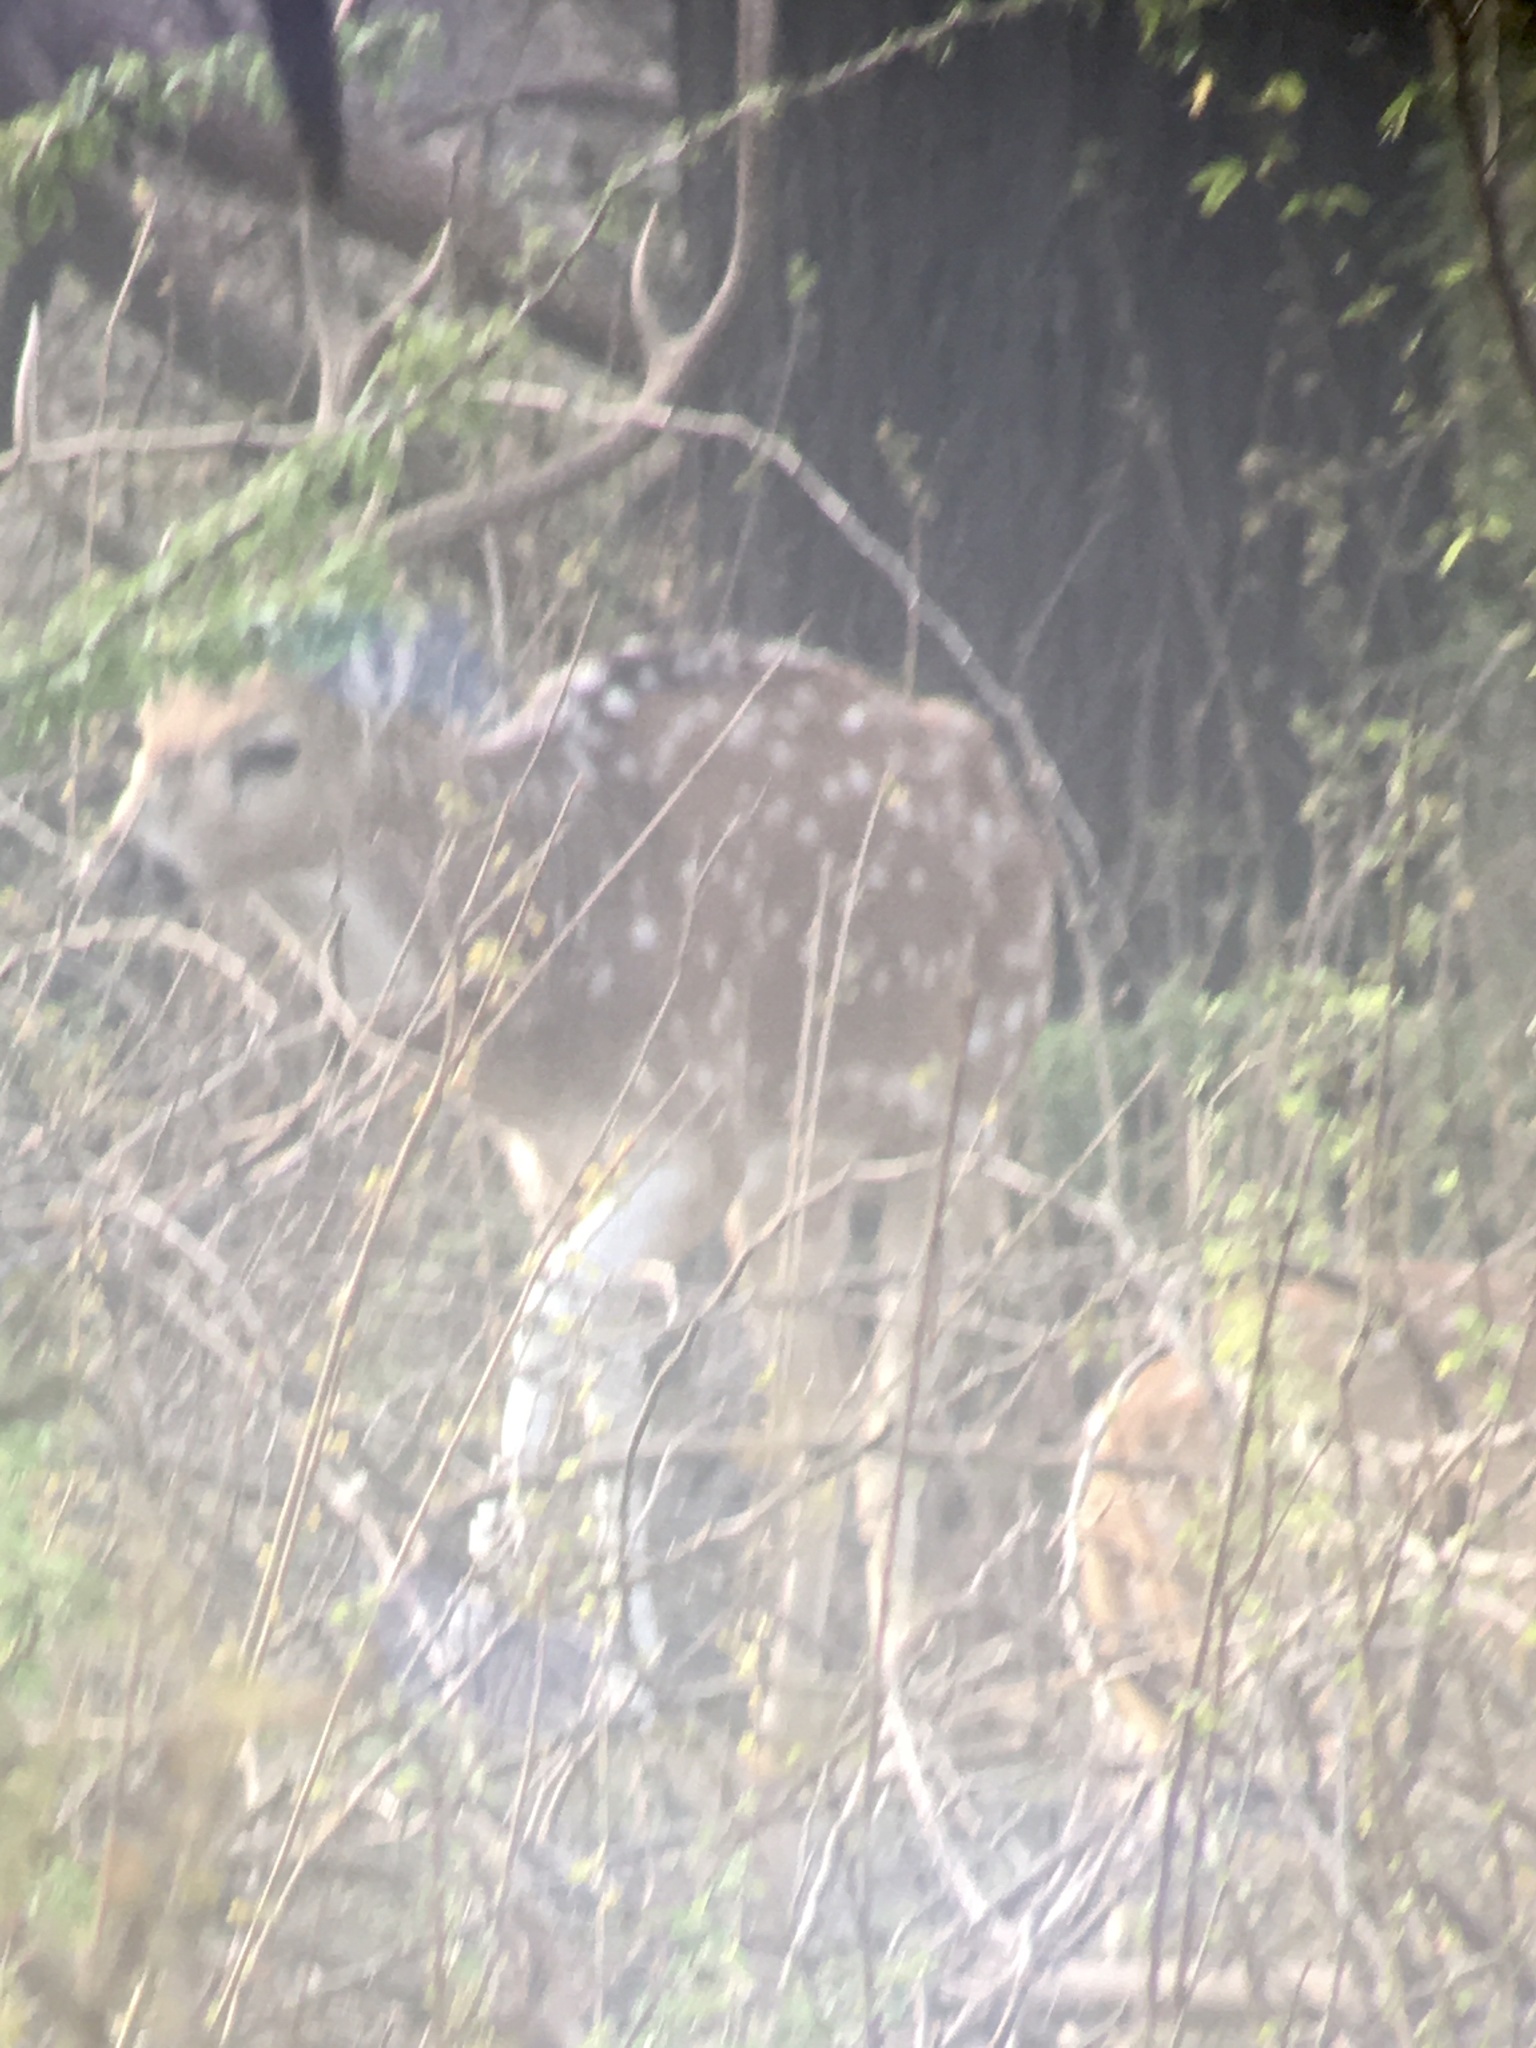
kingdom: Animalia
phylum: Chordata
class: Mammalia
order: Artiodactyla
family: Cervidae
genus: Axis
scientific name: Axis axis
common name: Chital
